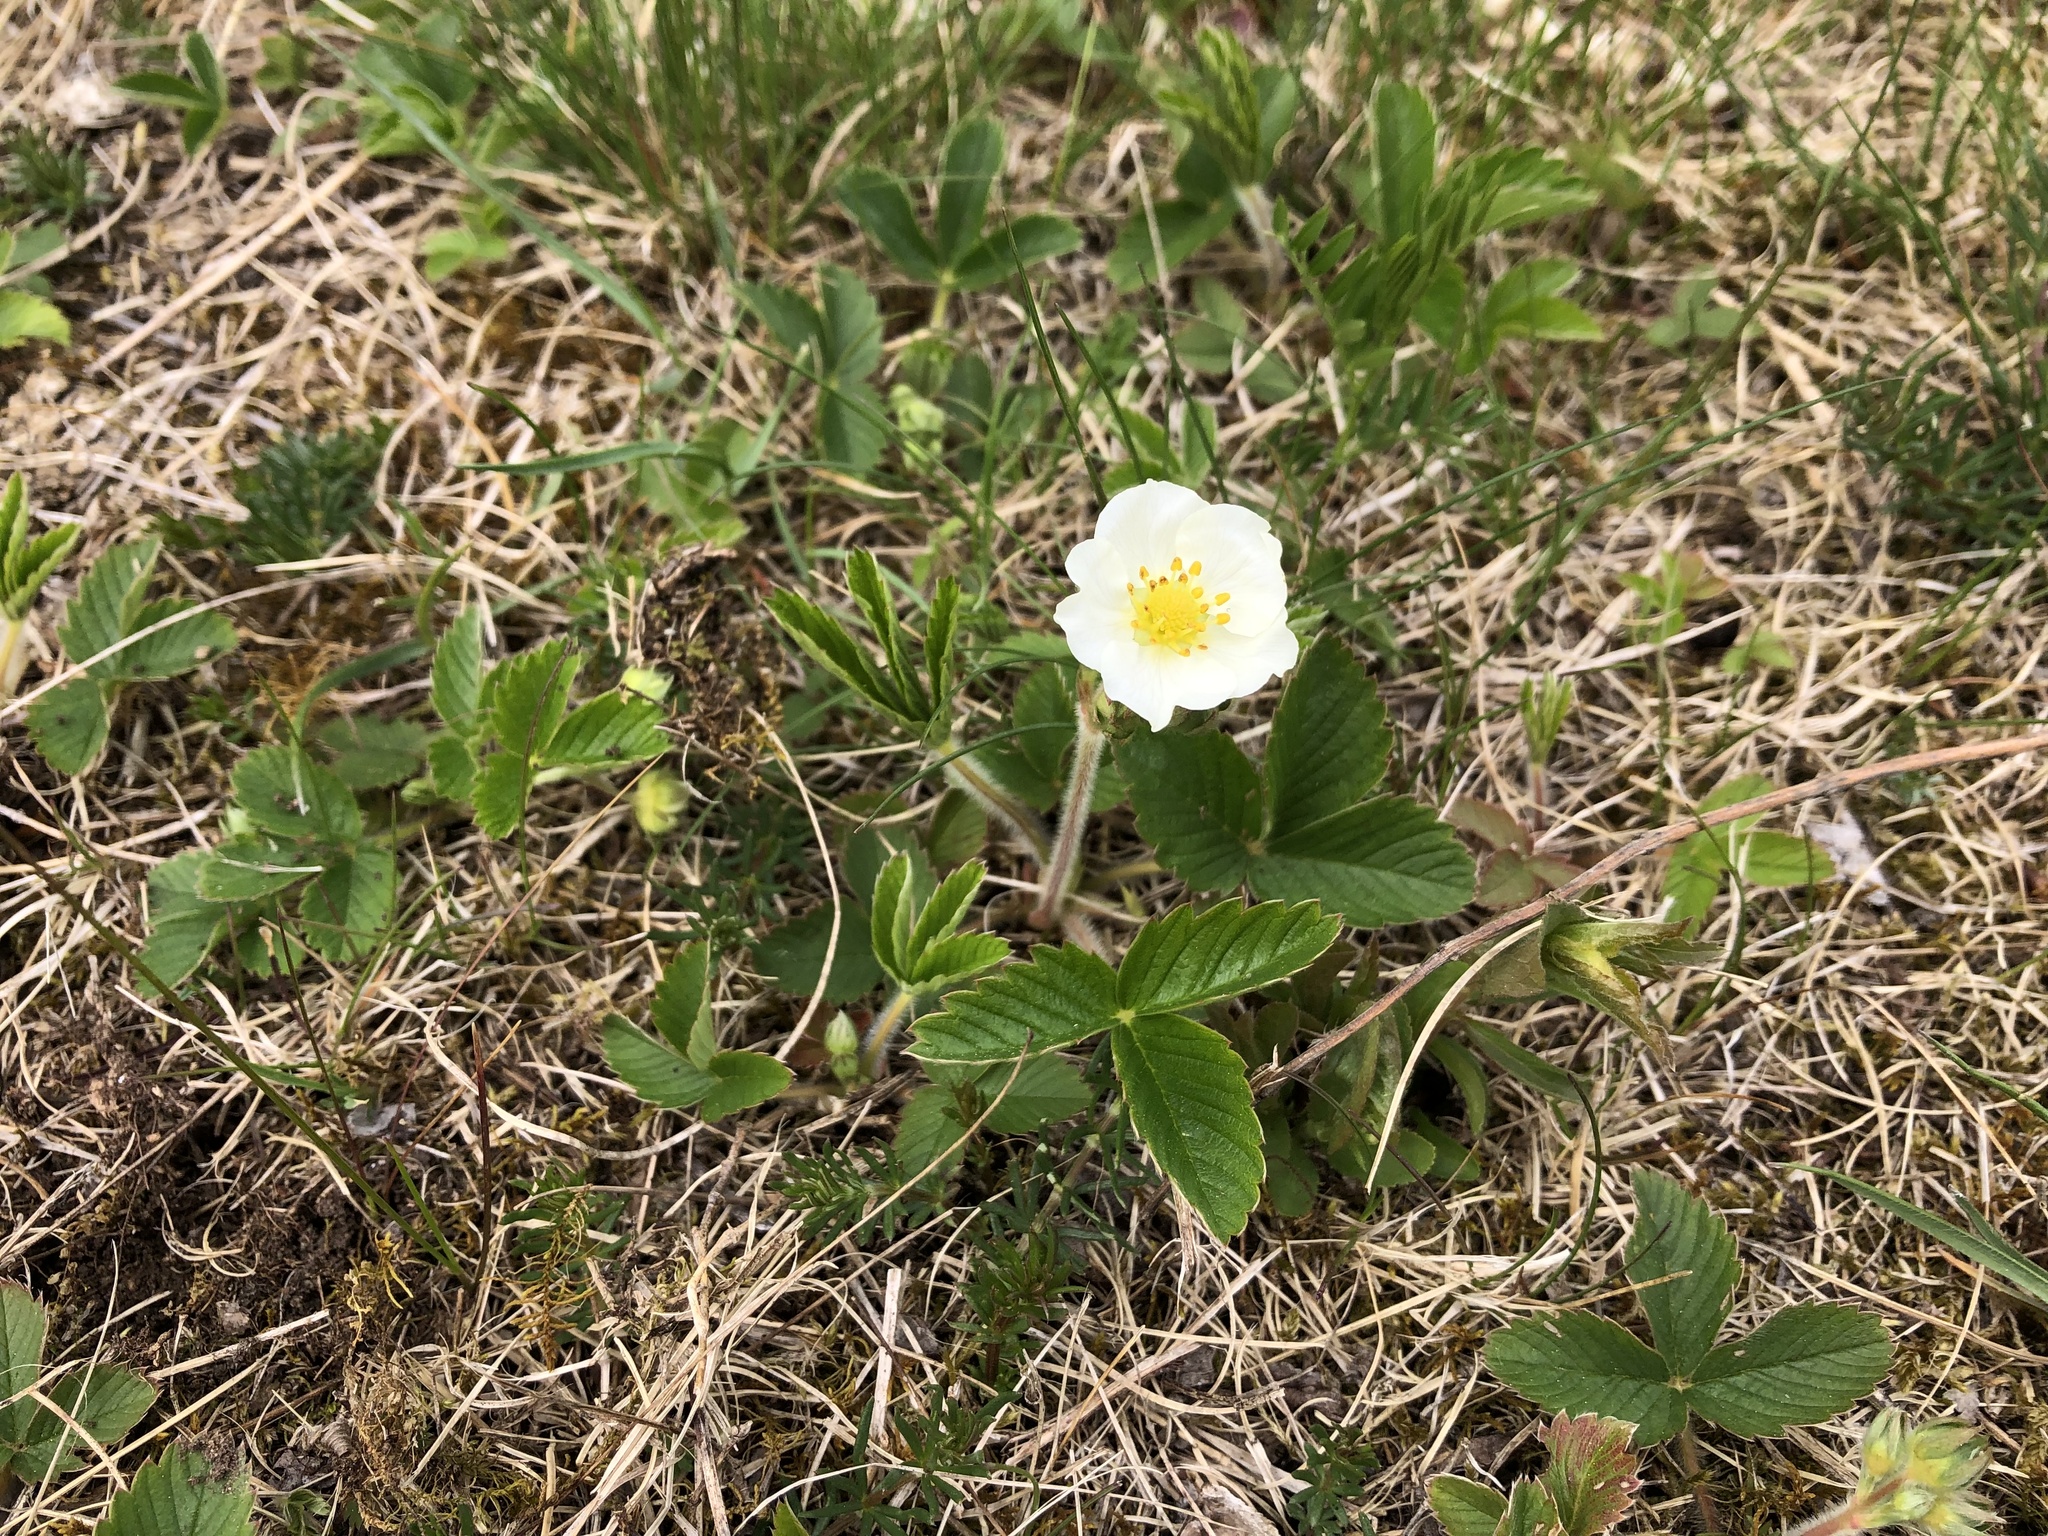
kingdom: Plantae
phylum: Tracheophyta
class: Magnoliopsida
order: Rosales
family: Rosaceae
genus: Fragaria
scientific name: Fragaria viridis
